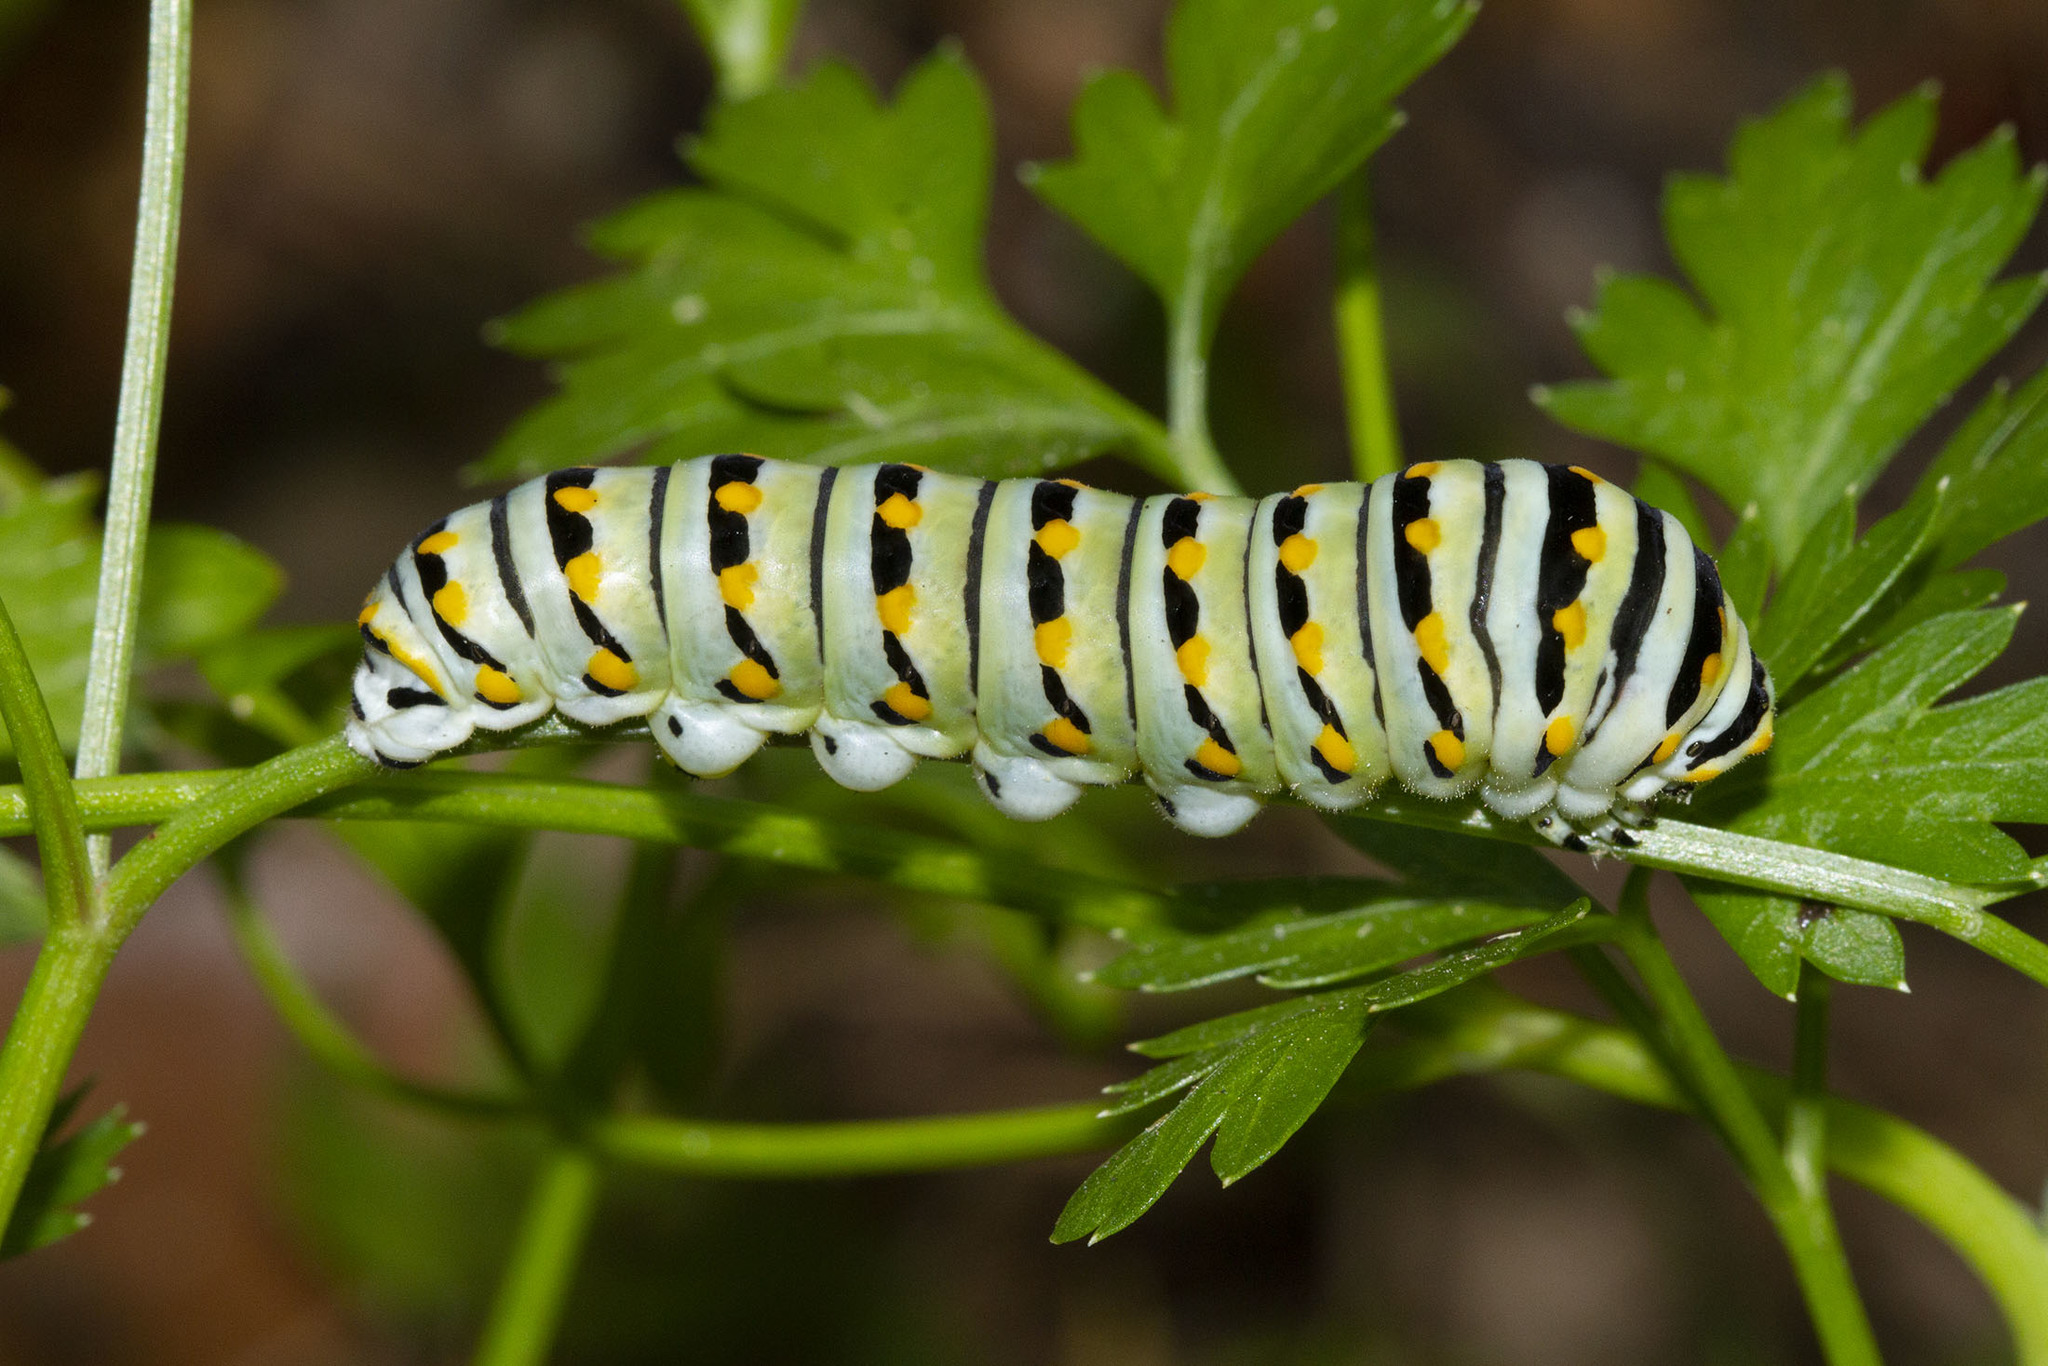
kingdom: Animalia
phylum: Arthropoda
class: Insecta
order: Lepidoptera
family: Papilionidae
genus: Papilio
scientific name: Papilio polyxenes
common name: Black swallowtail
